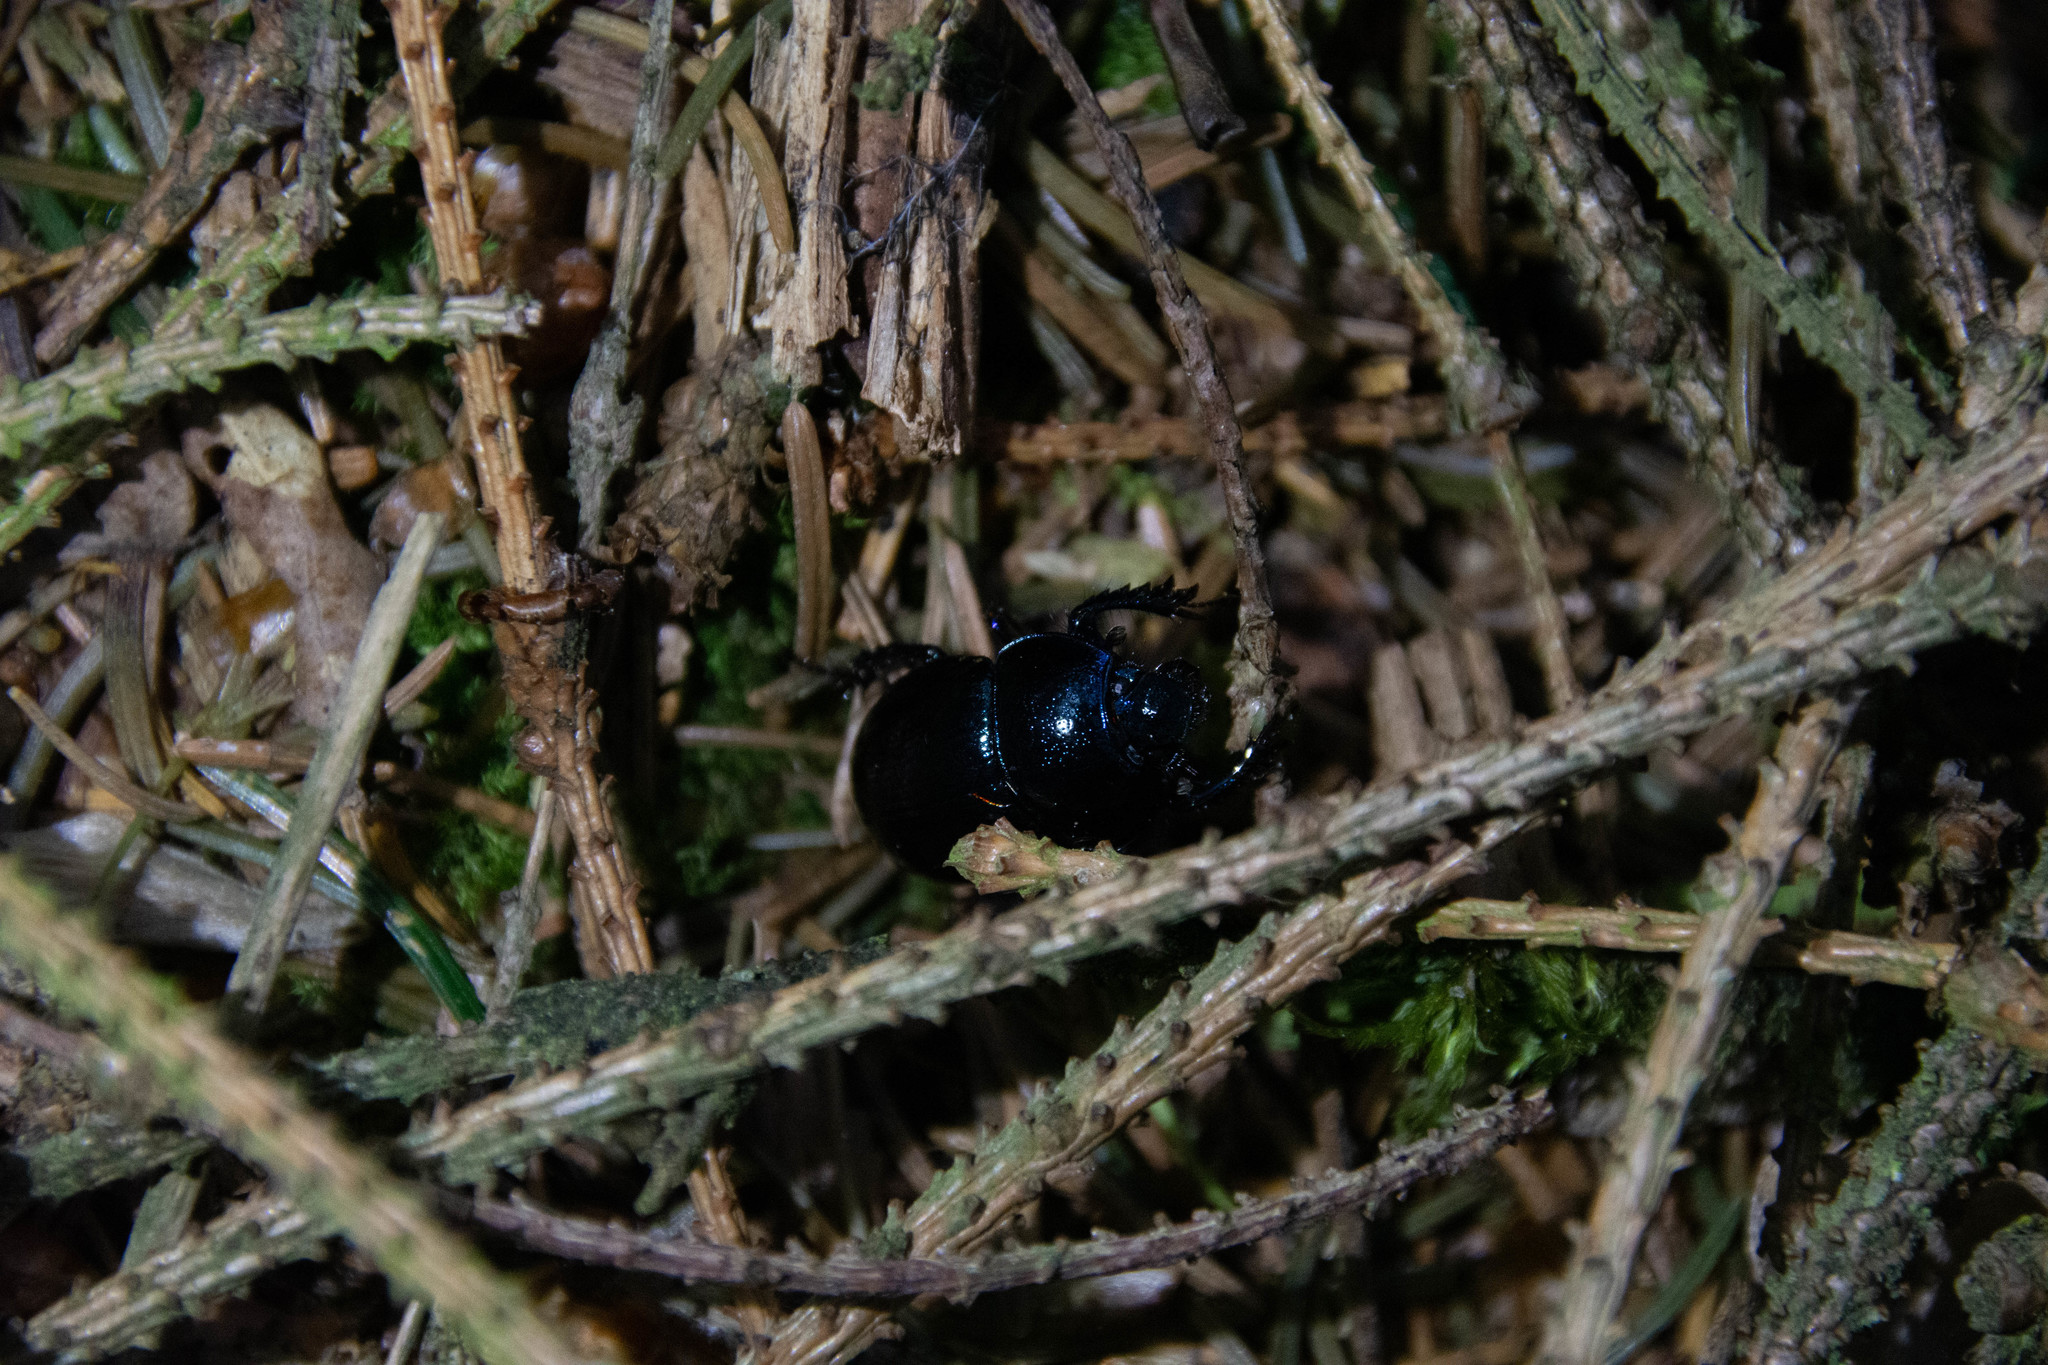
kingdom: Animalia
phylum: Arthropoda
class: Insecta
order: Coleoptera
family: Geotrupidae
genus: Anoplotrupes
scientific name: Anoplotrupes stercorosus
